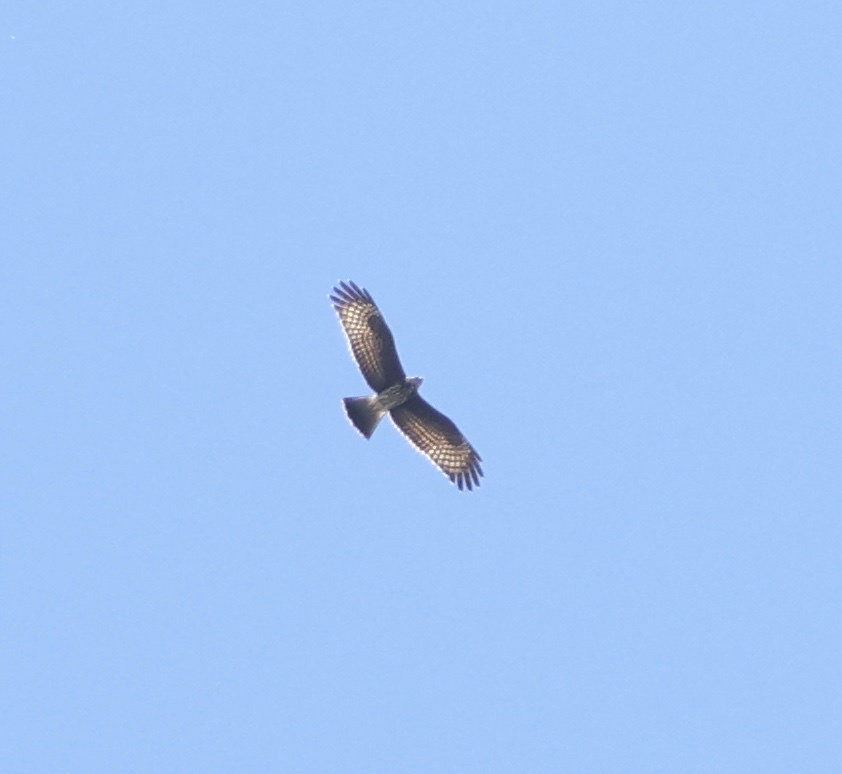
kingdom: Animalia
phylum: Chordata
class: Aves
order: Accipitriformes
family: Accipitridae
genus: Rostrhamus
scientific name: Rostrhamus sociabilis
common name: Snail kite
